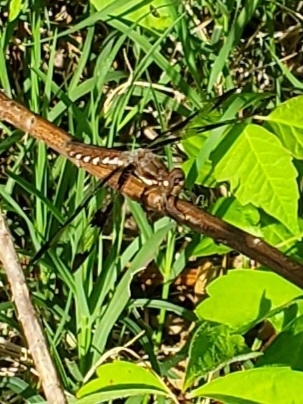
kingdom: Animalia
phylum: Arthropoda
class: Insecta
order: Odonata
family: Libellulidae
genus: Plathemis
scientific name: Plathemis lydia
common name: Common whitetail
